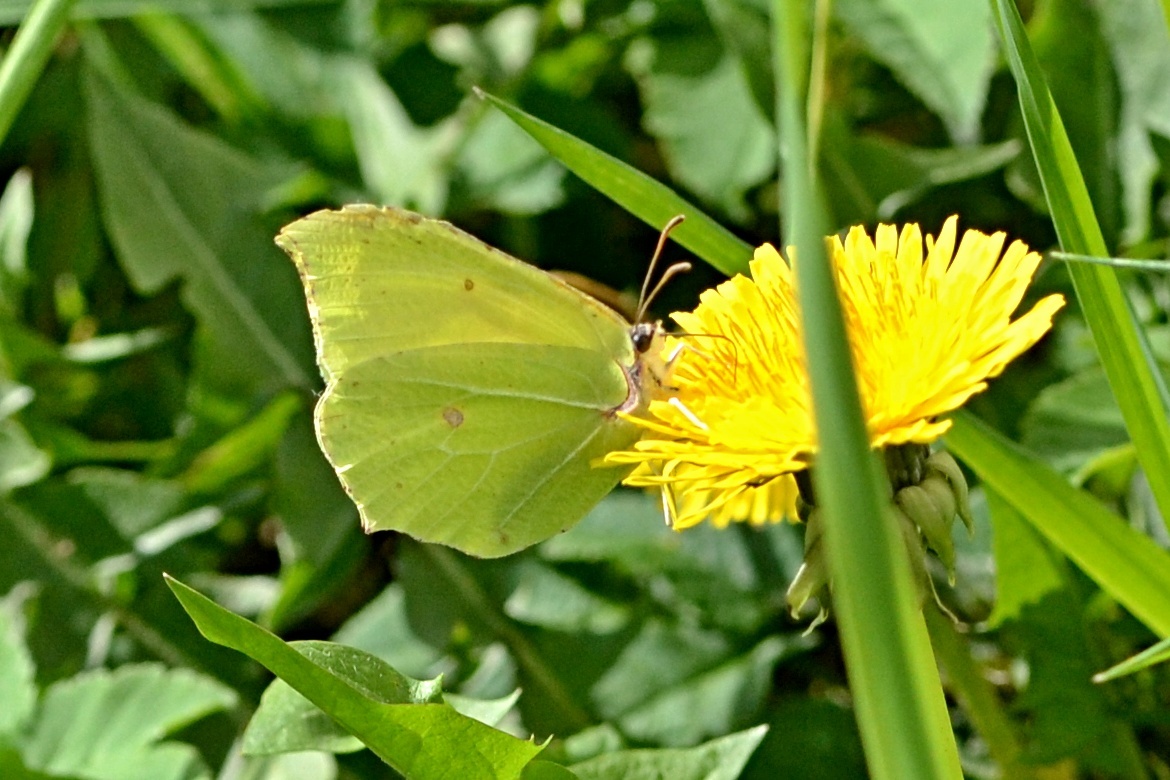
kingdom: Animalia
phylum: Arthropoda
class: Insecta
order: Lepidoptera
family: Pieridae
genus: Gonepteryx
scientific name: Gonepteryx rhamni
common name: Brimstone
